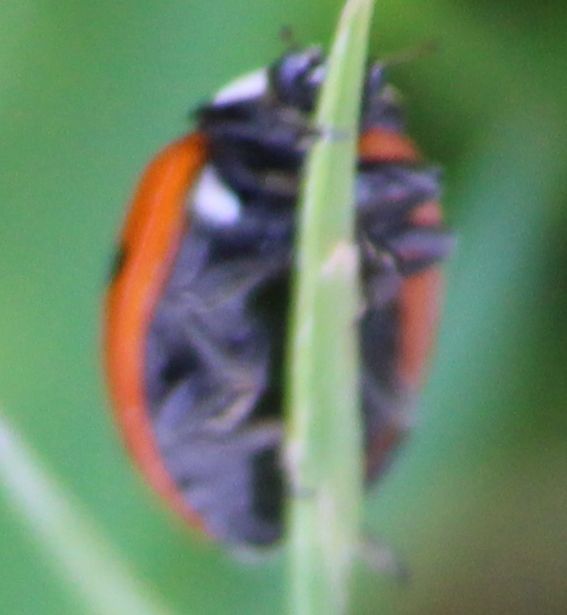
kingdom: Animalia
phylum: Arthropoda
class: Insecta
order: Coleoptera
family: Coccinellidae
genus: Coccinella
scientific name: Coccinella septempunctata
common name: Sevenspotted lady beetle
